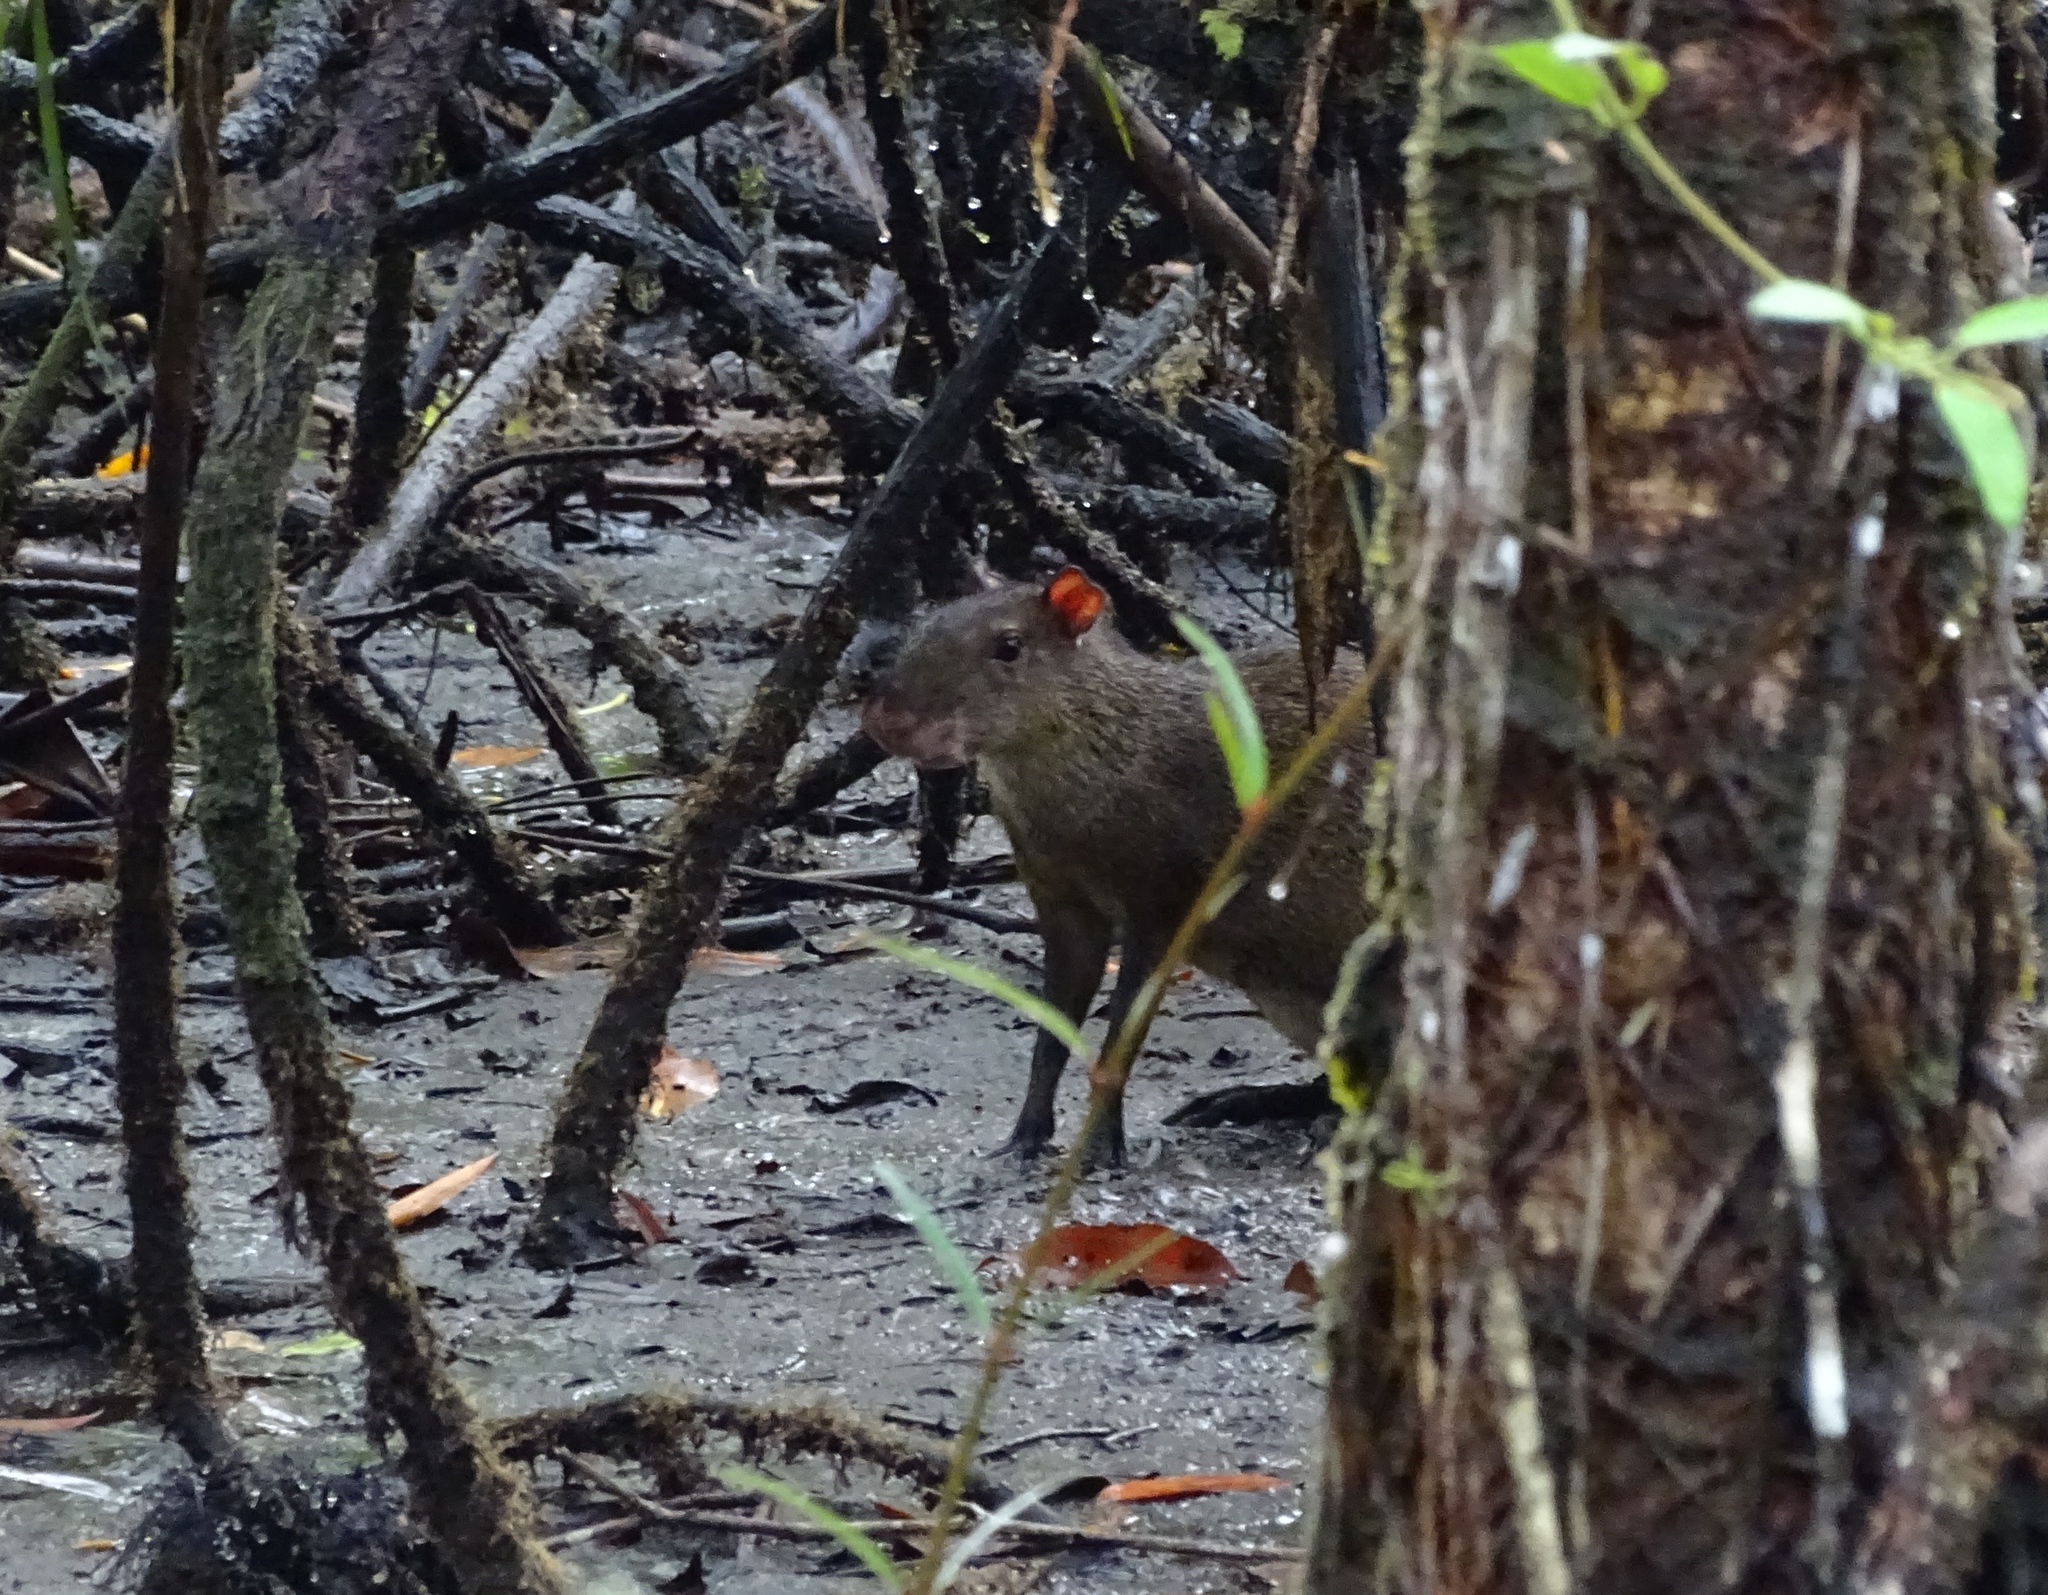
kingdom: Animalia
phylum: Chordata
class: Mammalia
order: Rodentia
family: Dasyproctidae
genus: Dasyprocta
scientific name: Dasyprocta punctata
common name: Central american agouti
